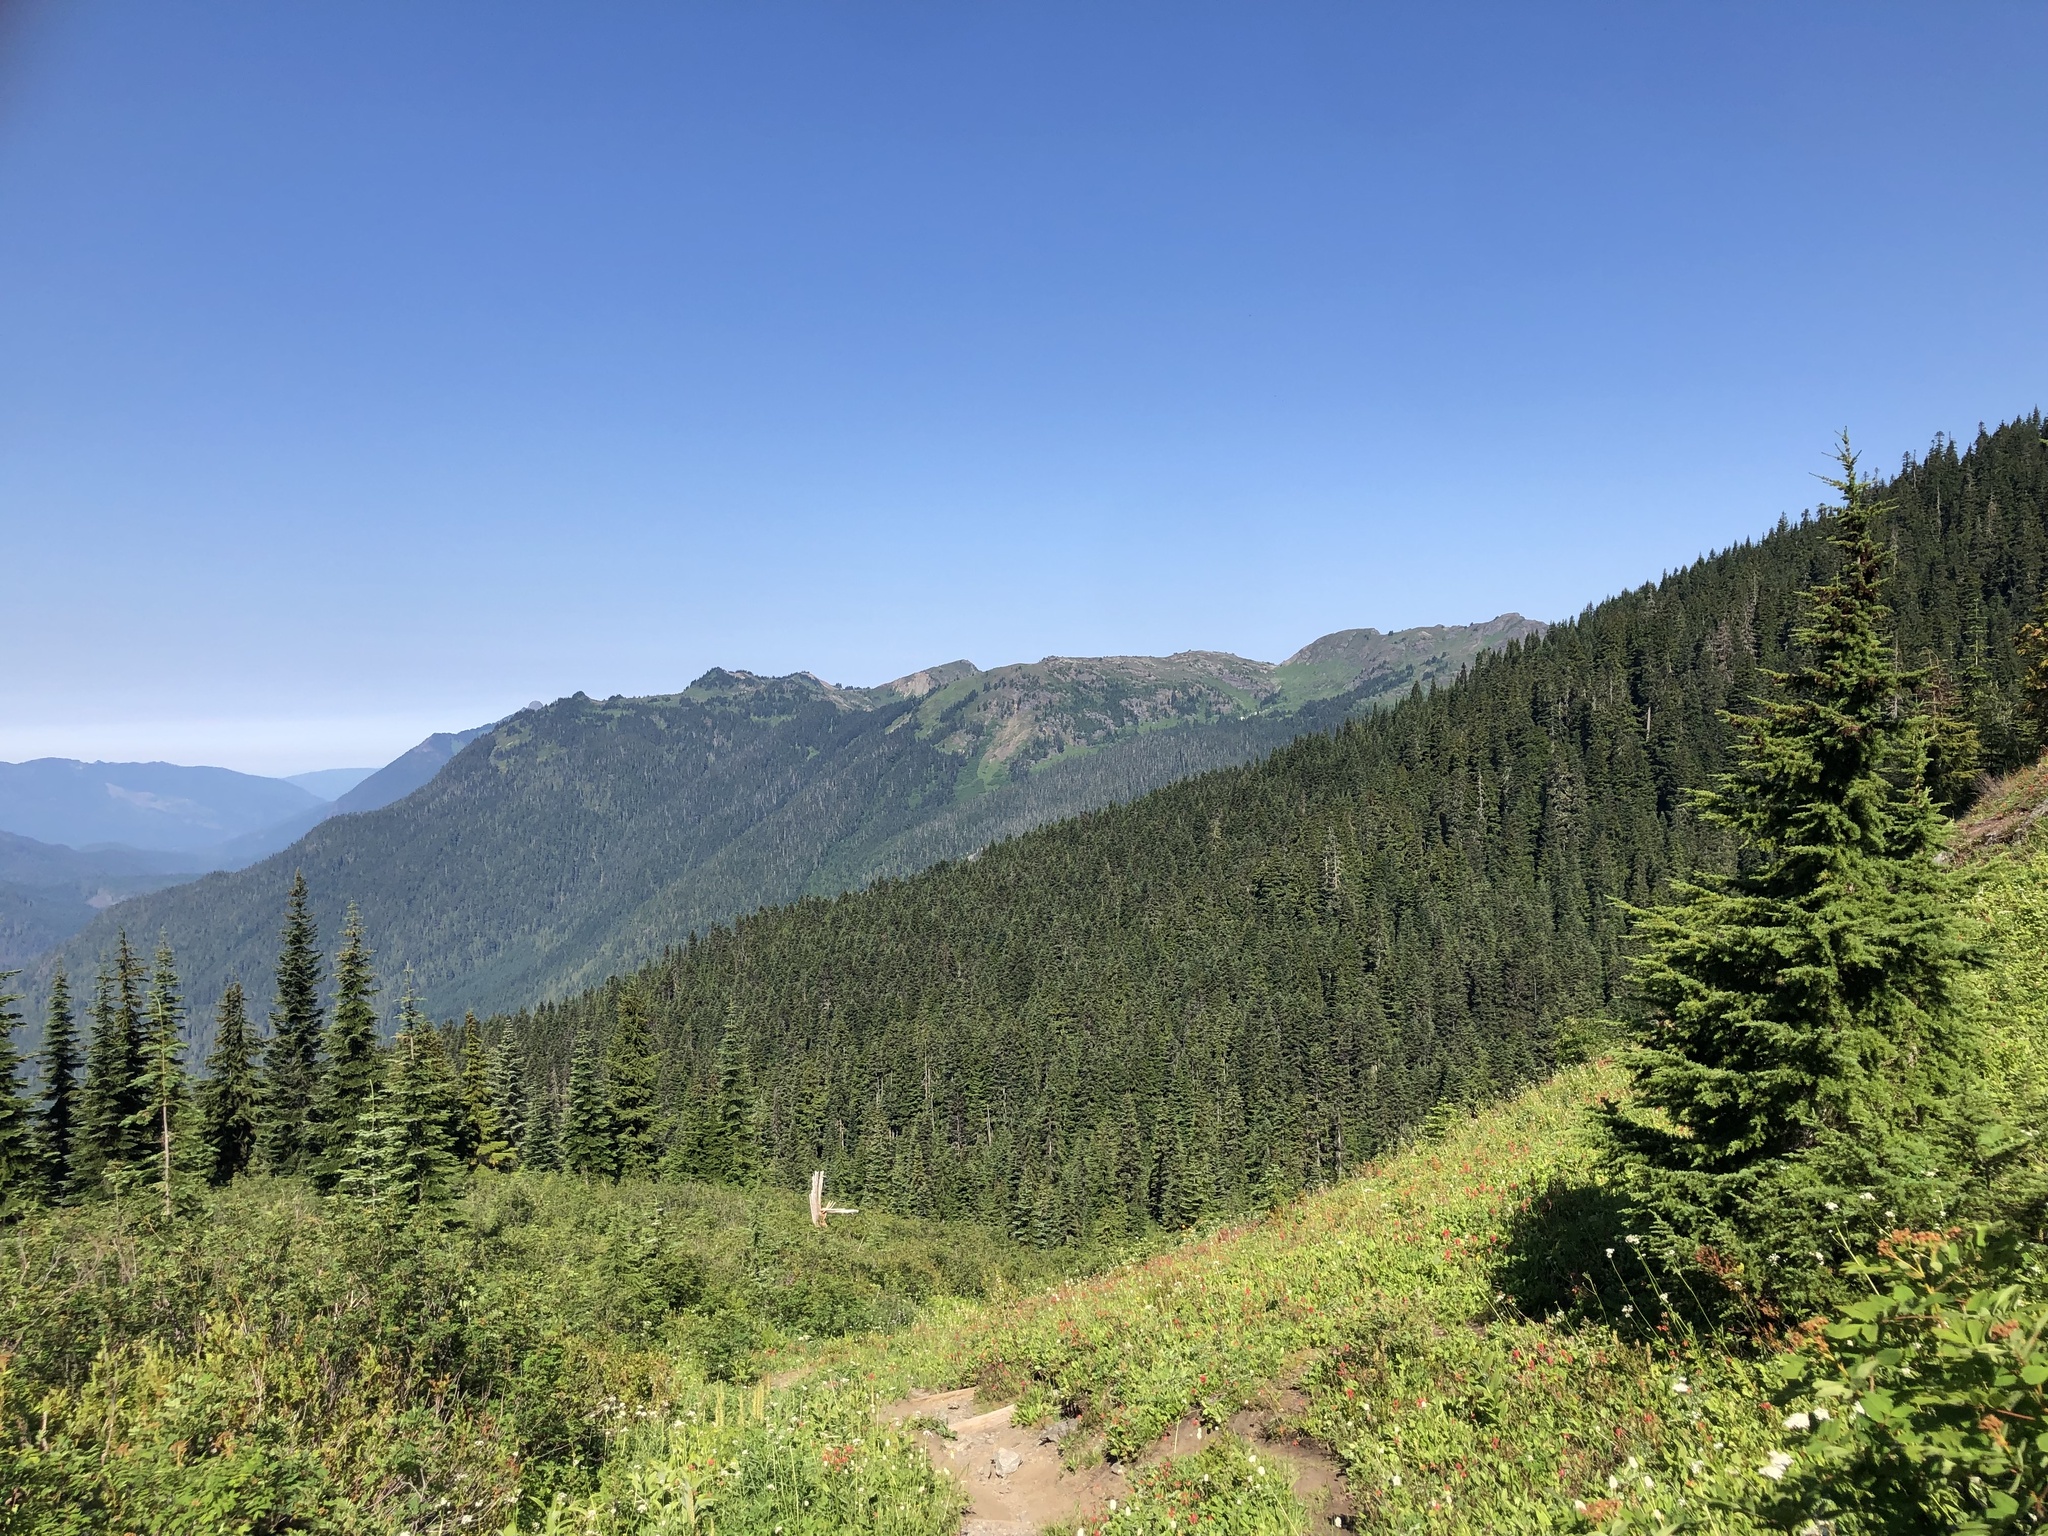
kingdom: Plantae
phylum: Tracheophyta
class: Pinopsida
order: Pinales
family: Pinaceae
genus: Tsuga
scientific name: Tsuga mertensiana
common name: Mountain hemlock
